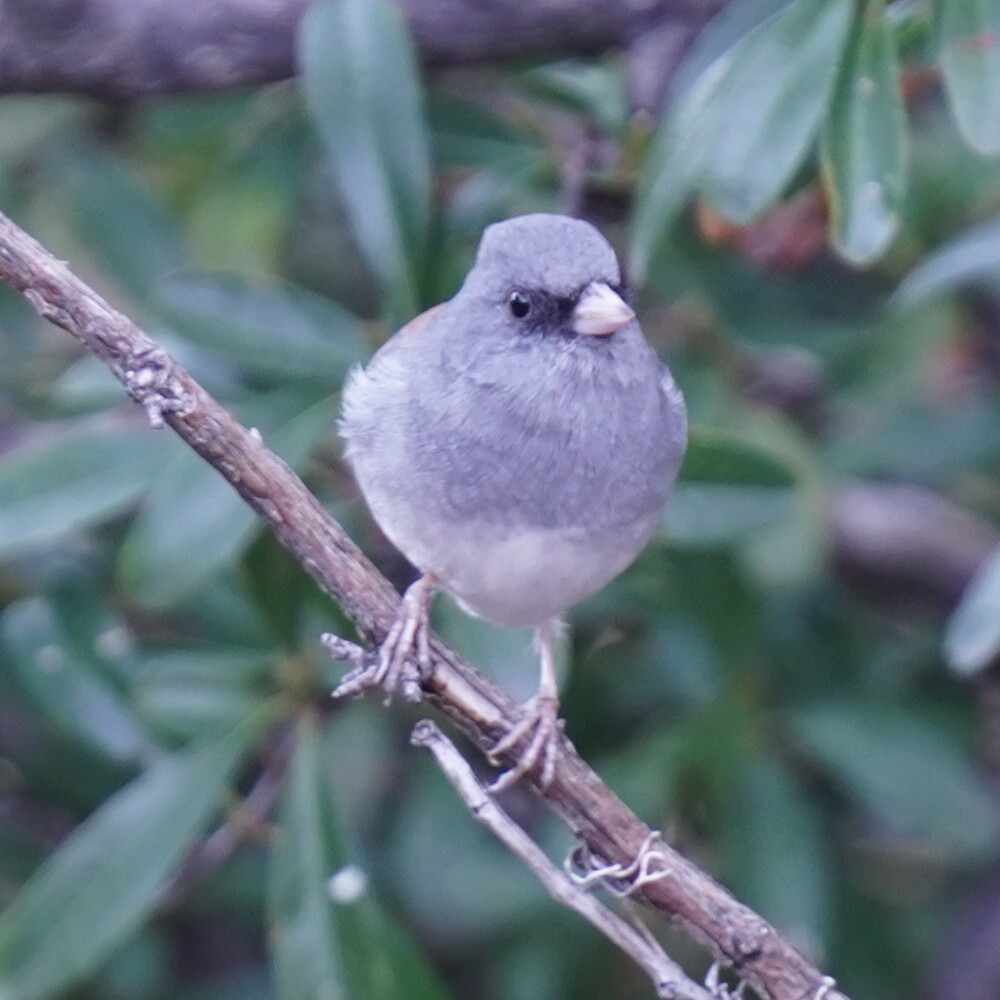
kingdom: Animalia
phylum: Chordata
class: Aves
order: Passeriformes
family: Passerellidae
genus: Junco
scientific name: Junco hyemalis
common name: Dark-eyed junco
